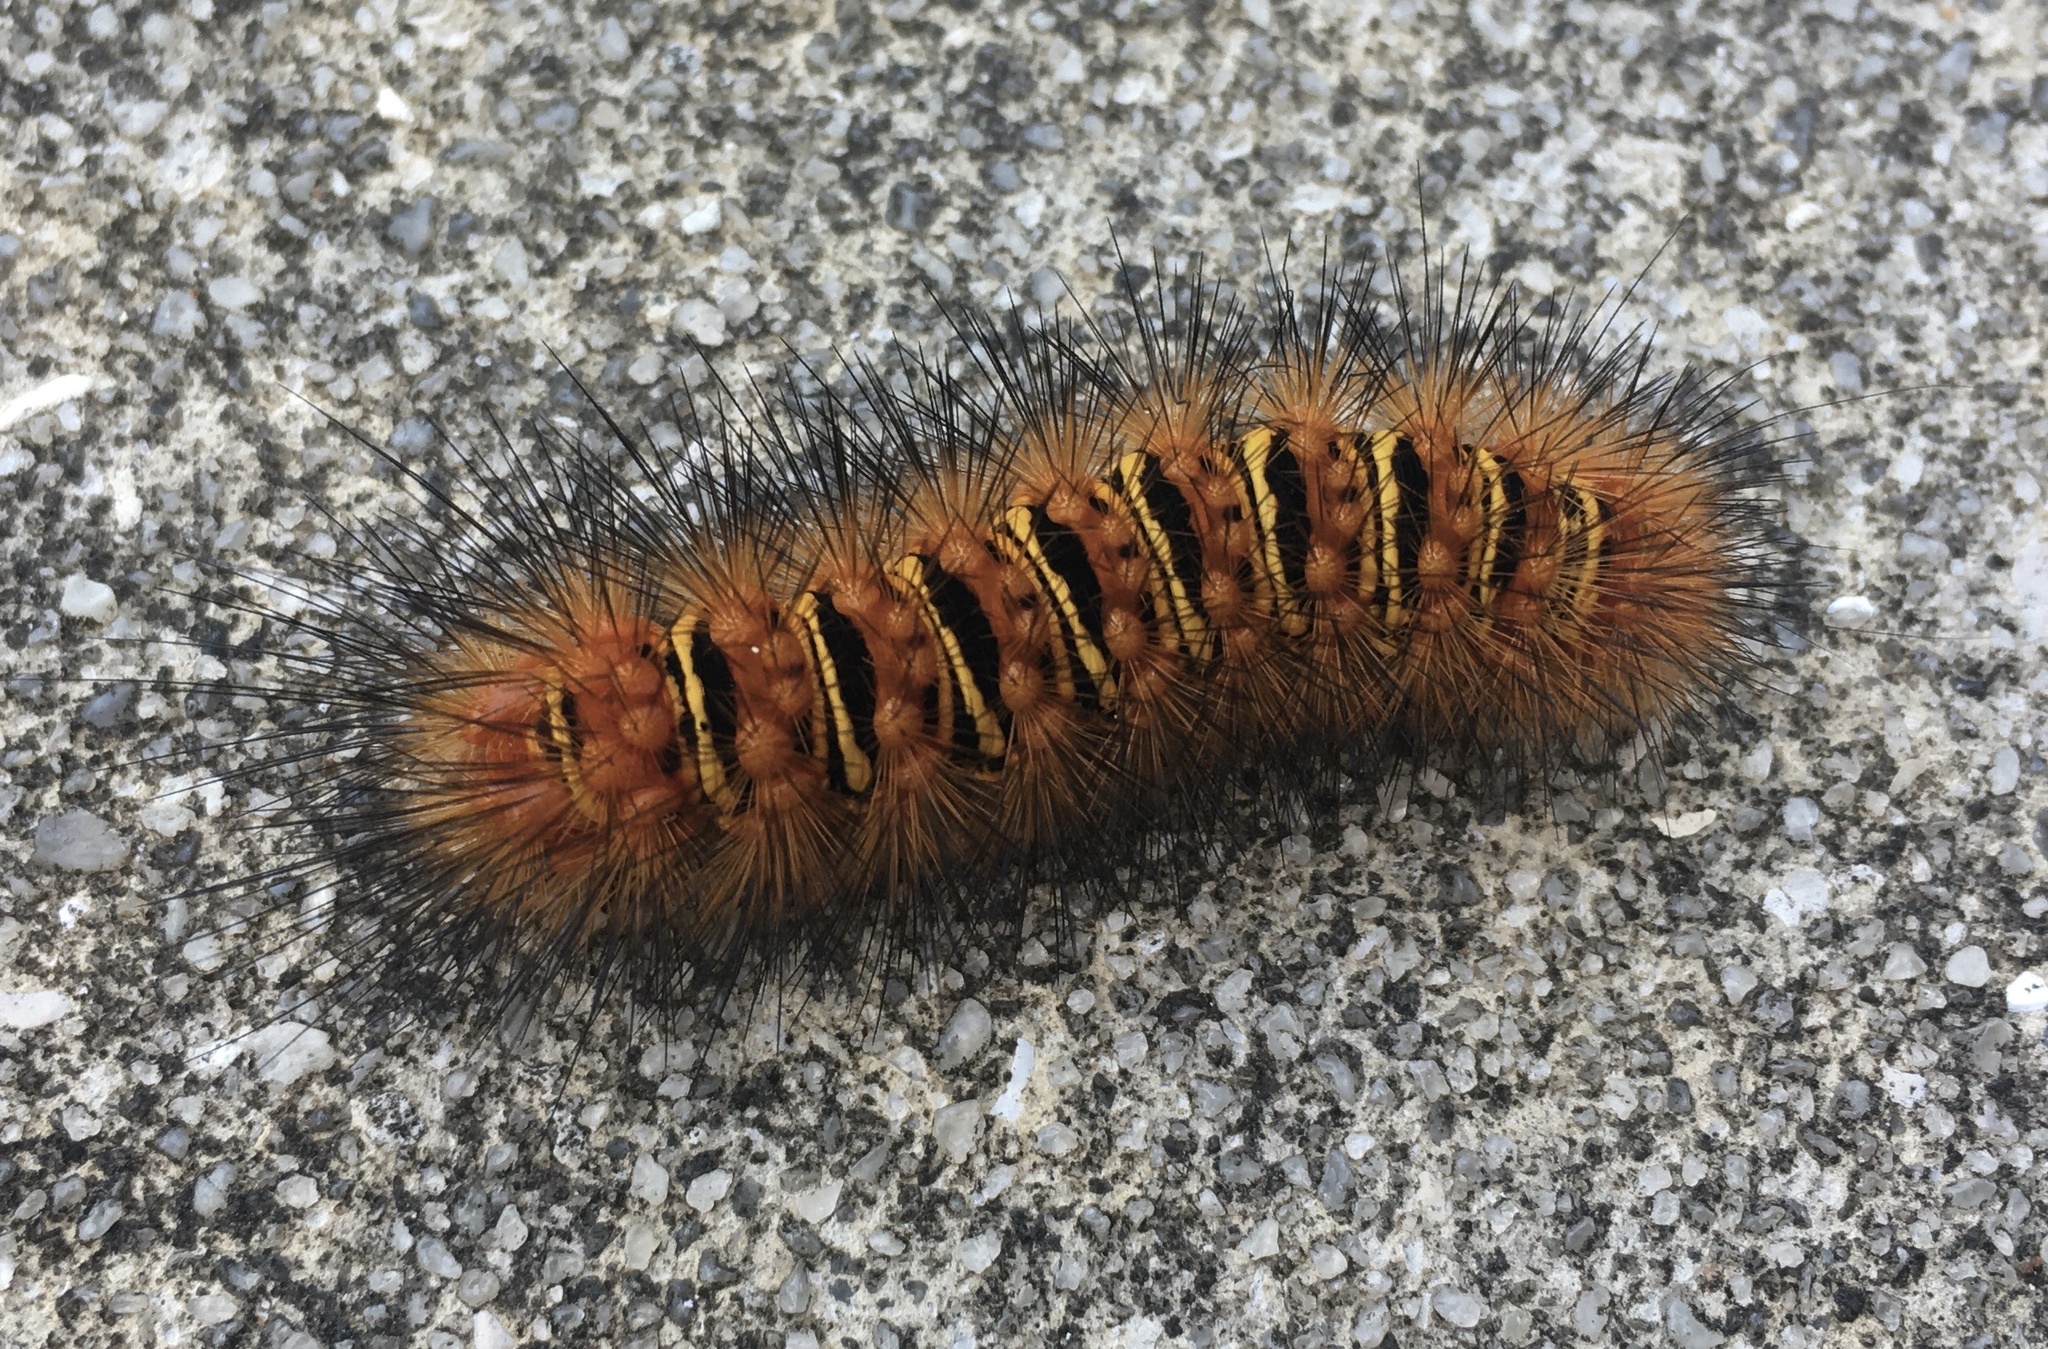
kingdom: Animalia
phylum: Arthropoda
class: Insecta
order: Lepidoptera
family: Erebidae
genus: Seirarctia
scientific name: Seirarctia echo
